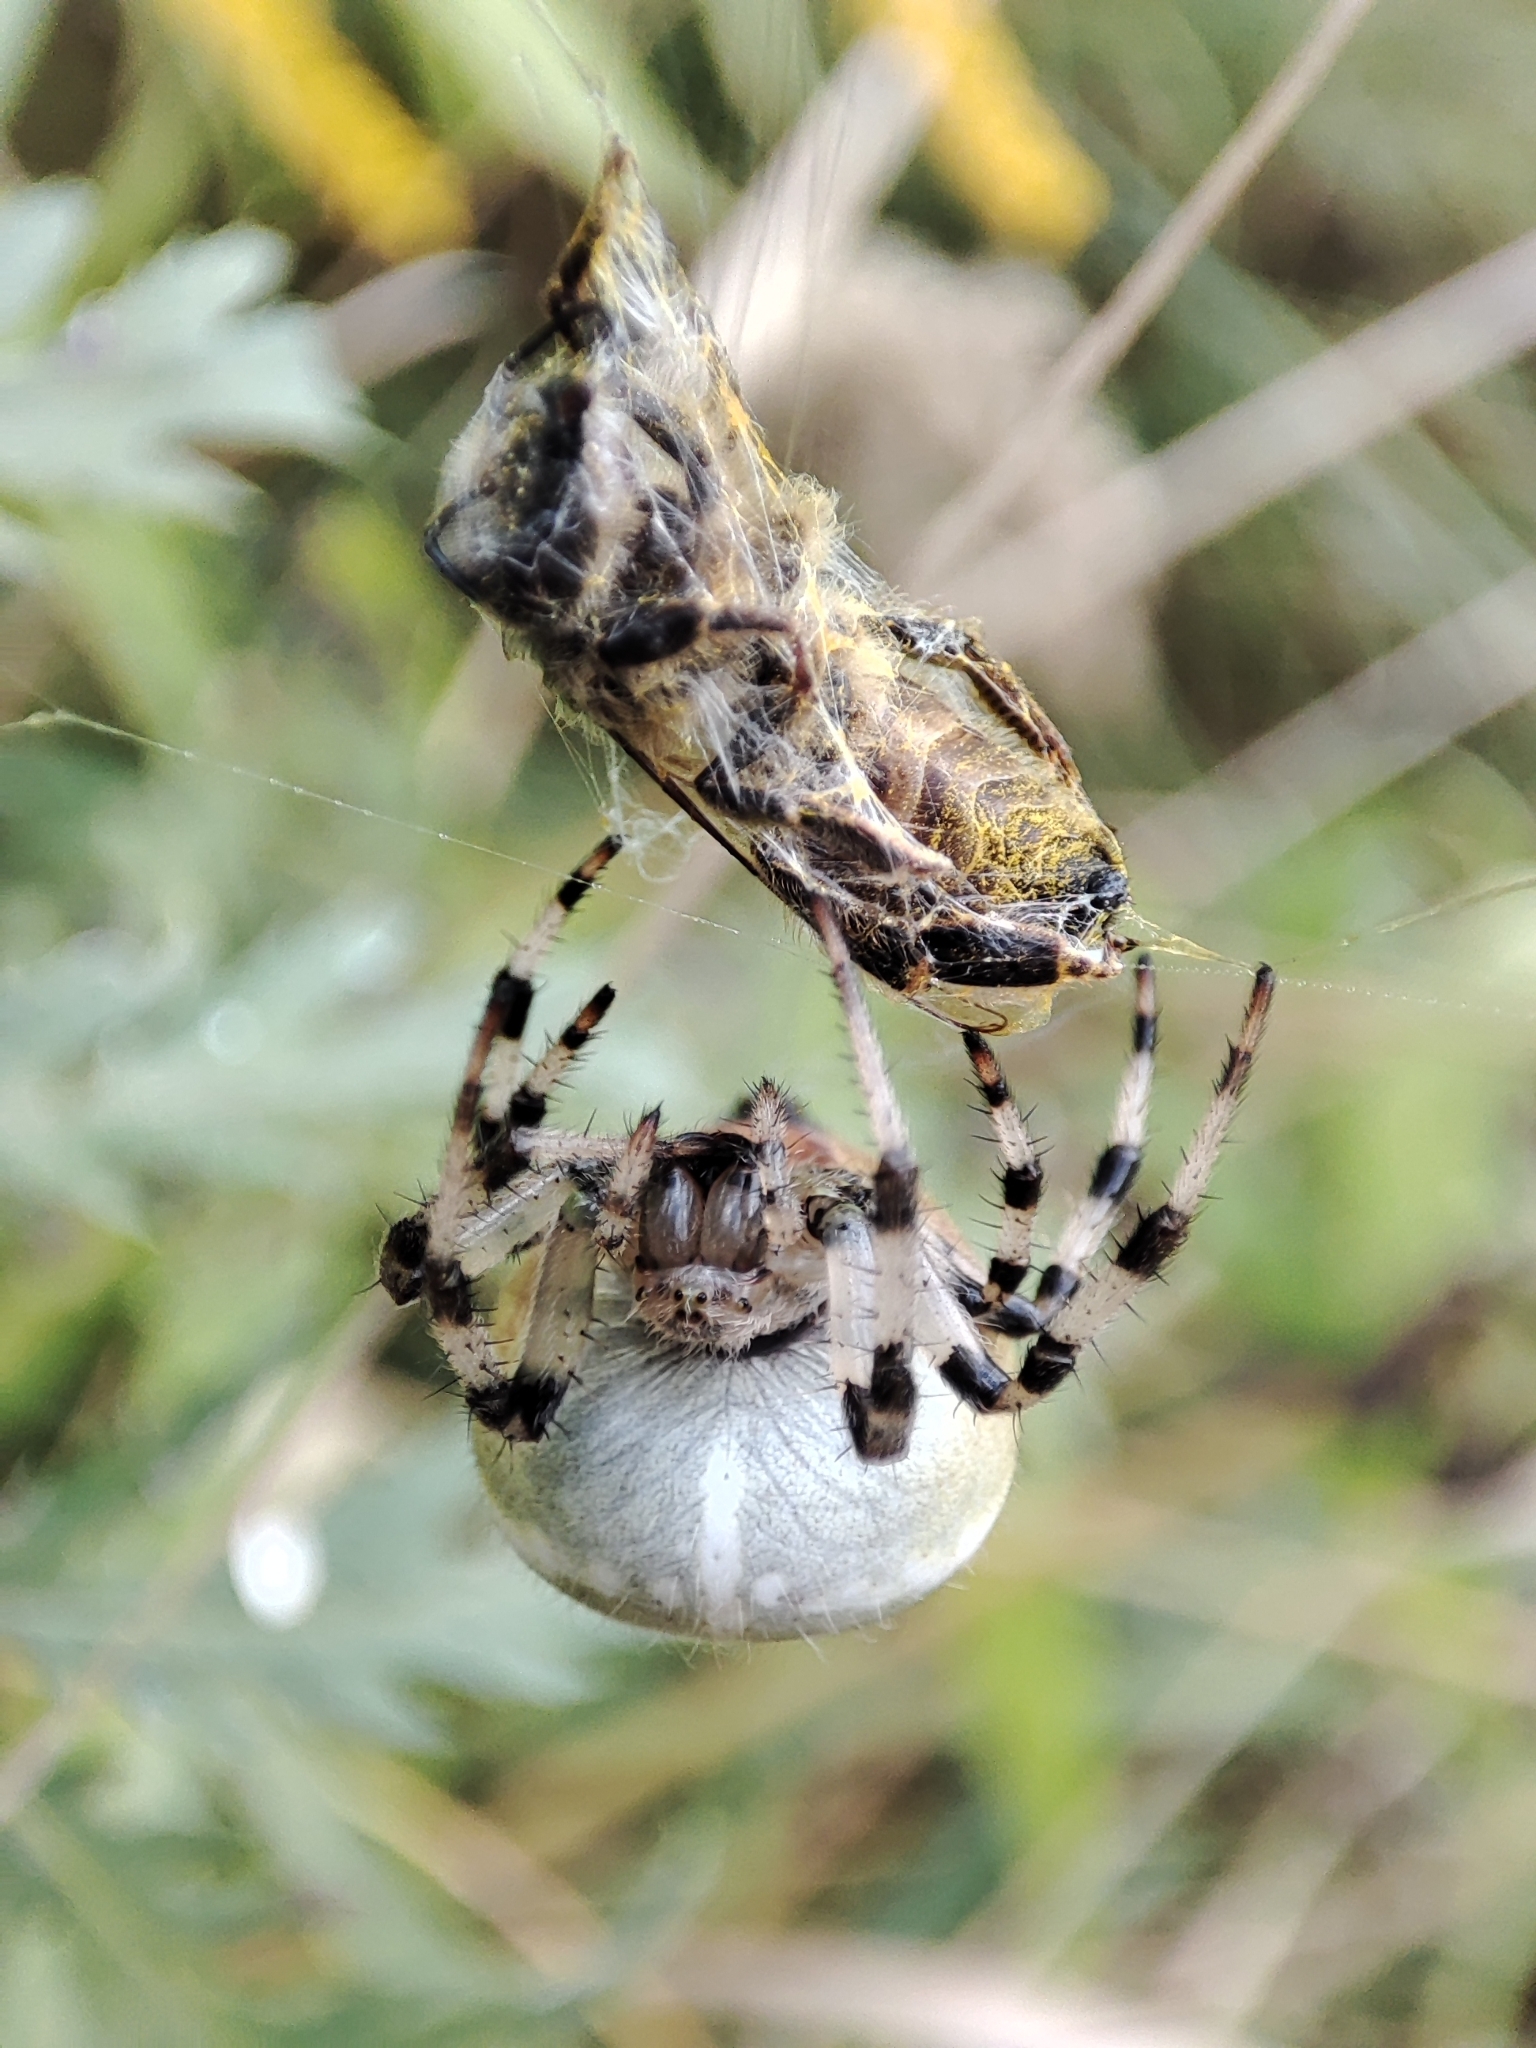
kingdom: Animalia
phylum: Arthropoda
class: Arachnida
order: Araneae
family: Araneidae
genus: Araneus
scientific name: Araneus quadratus
